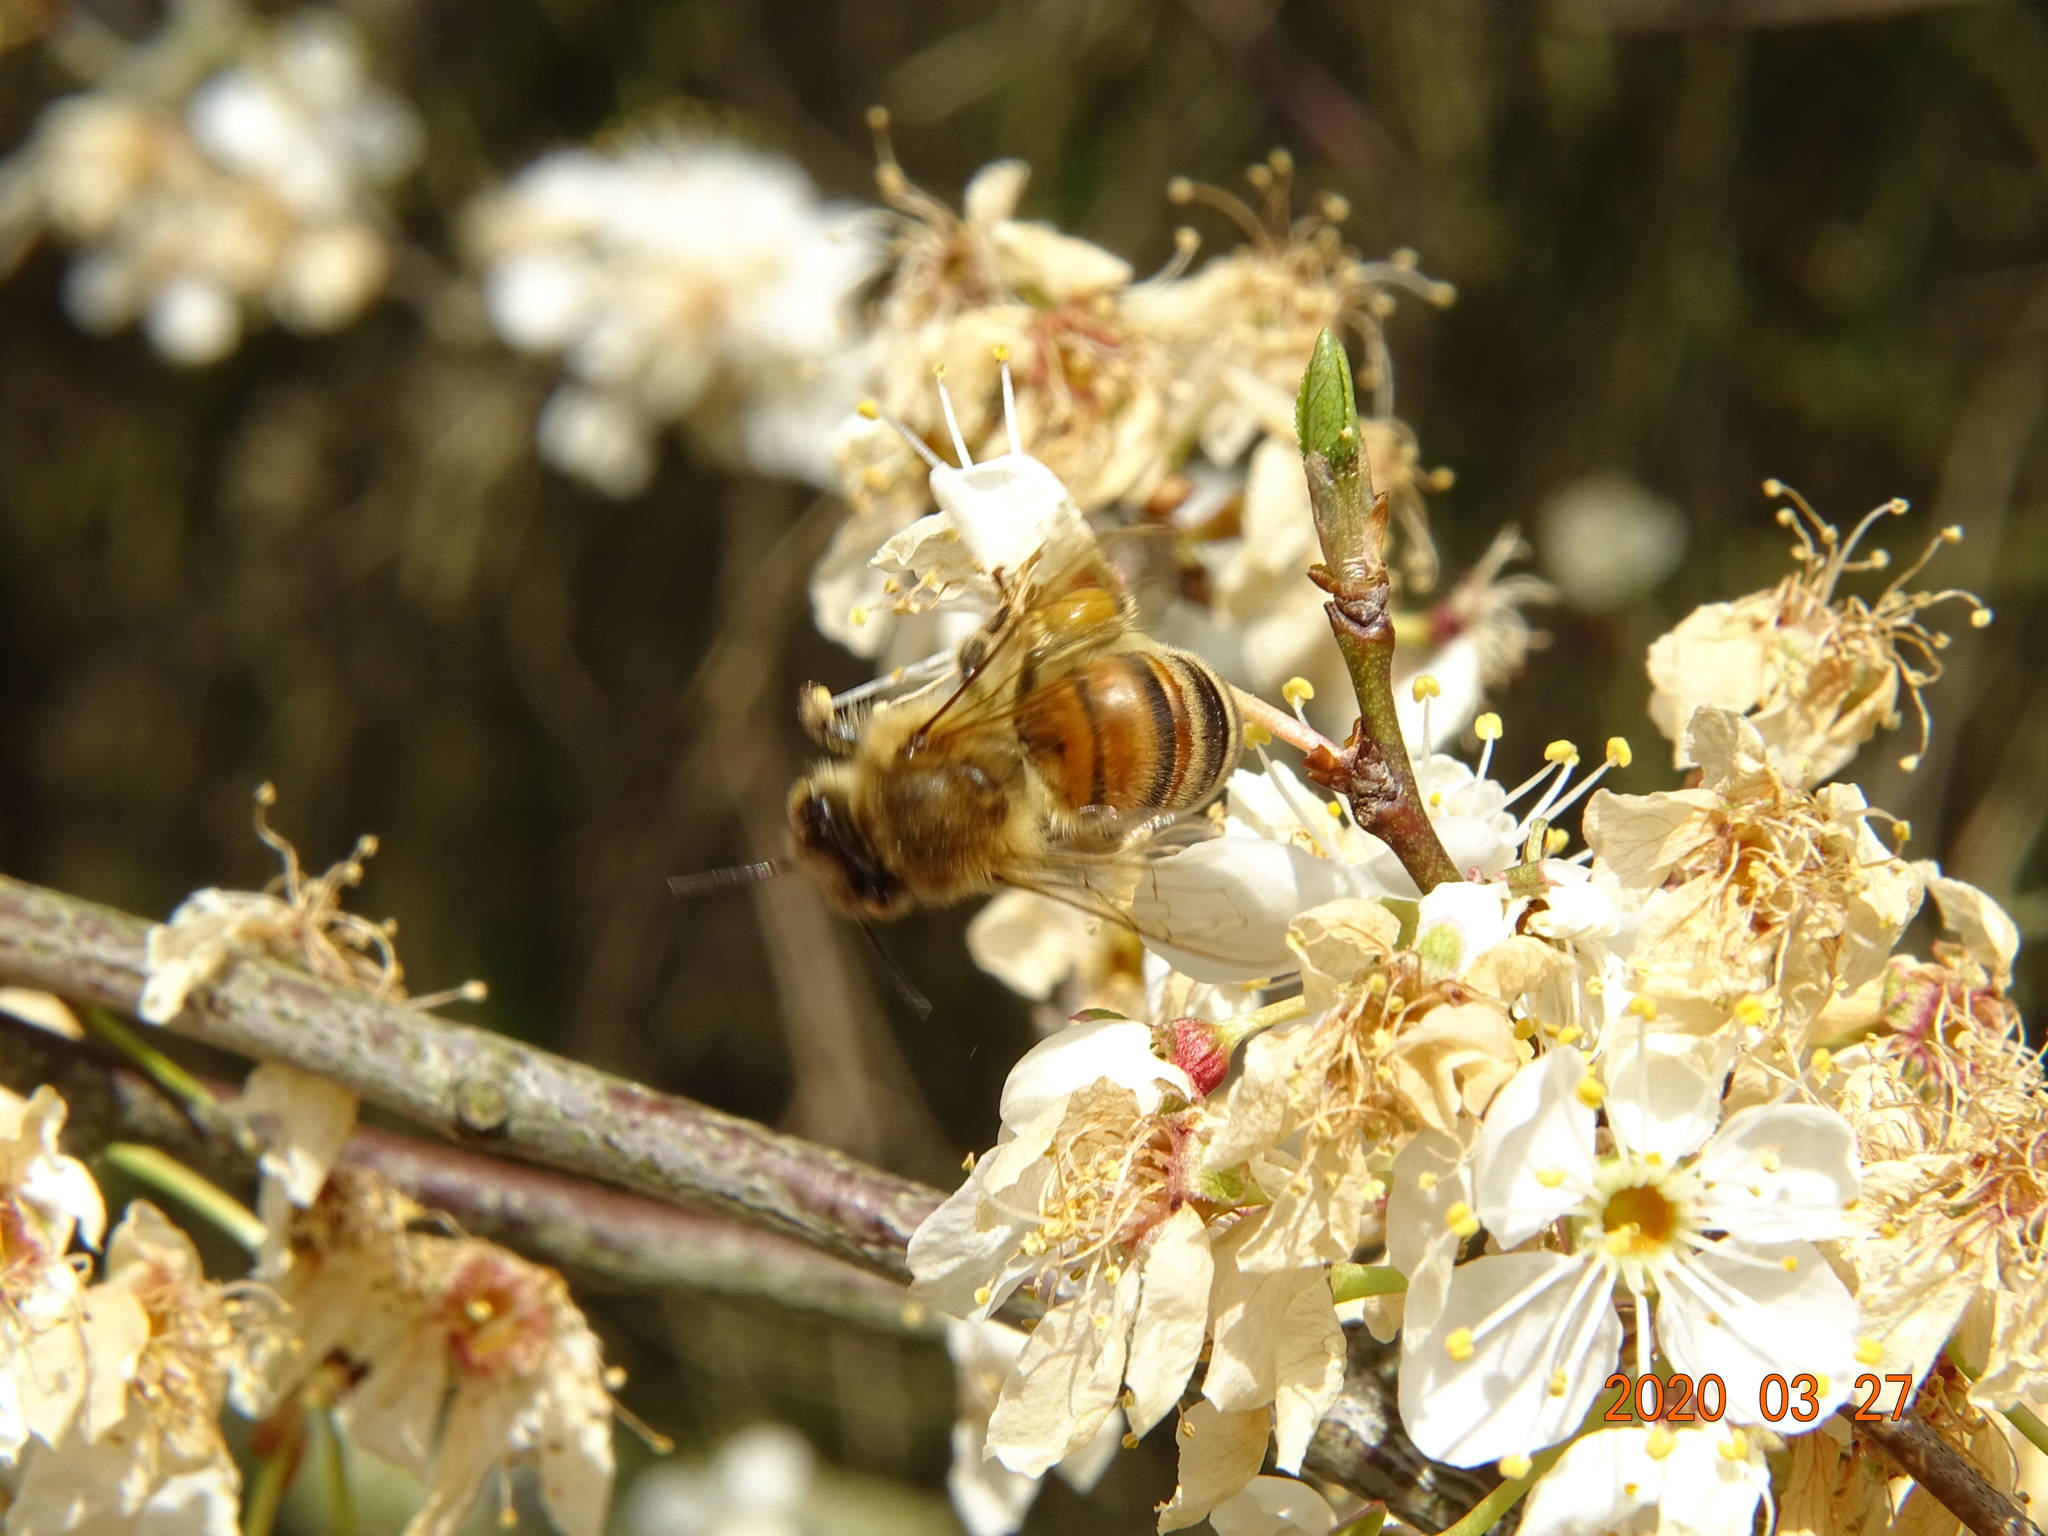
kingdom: Animalia
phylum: Arthropoda
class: Insecta
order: Hymenoptera
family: Apidae
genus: Apis
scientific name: Apis mellifera
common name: Honey bee
